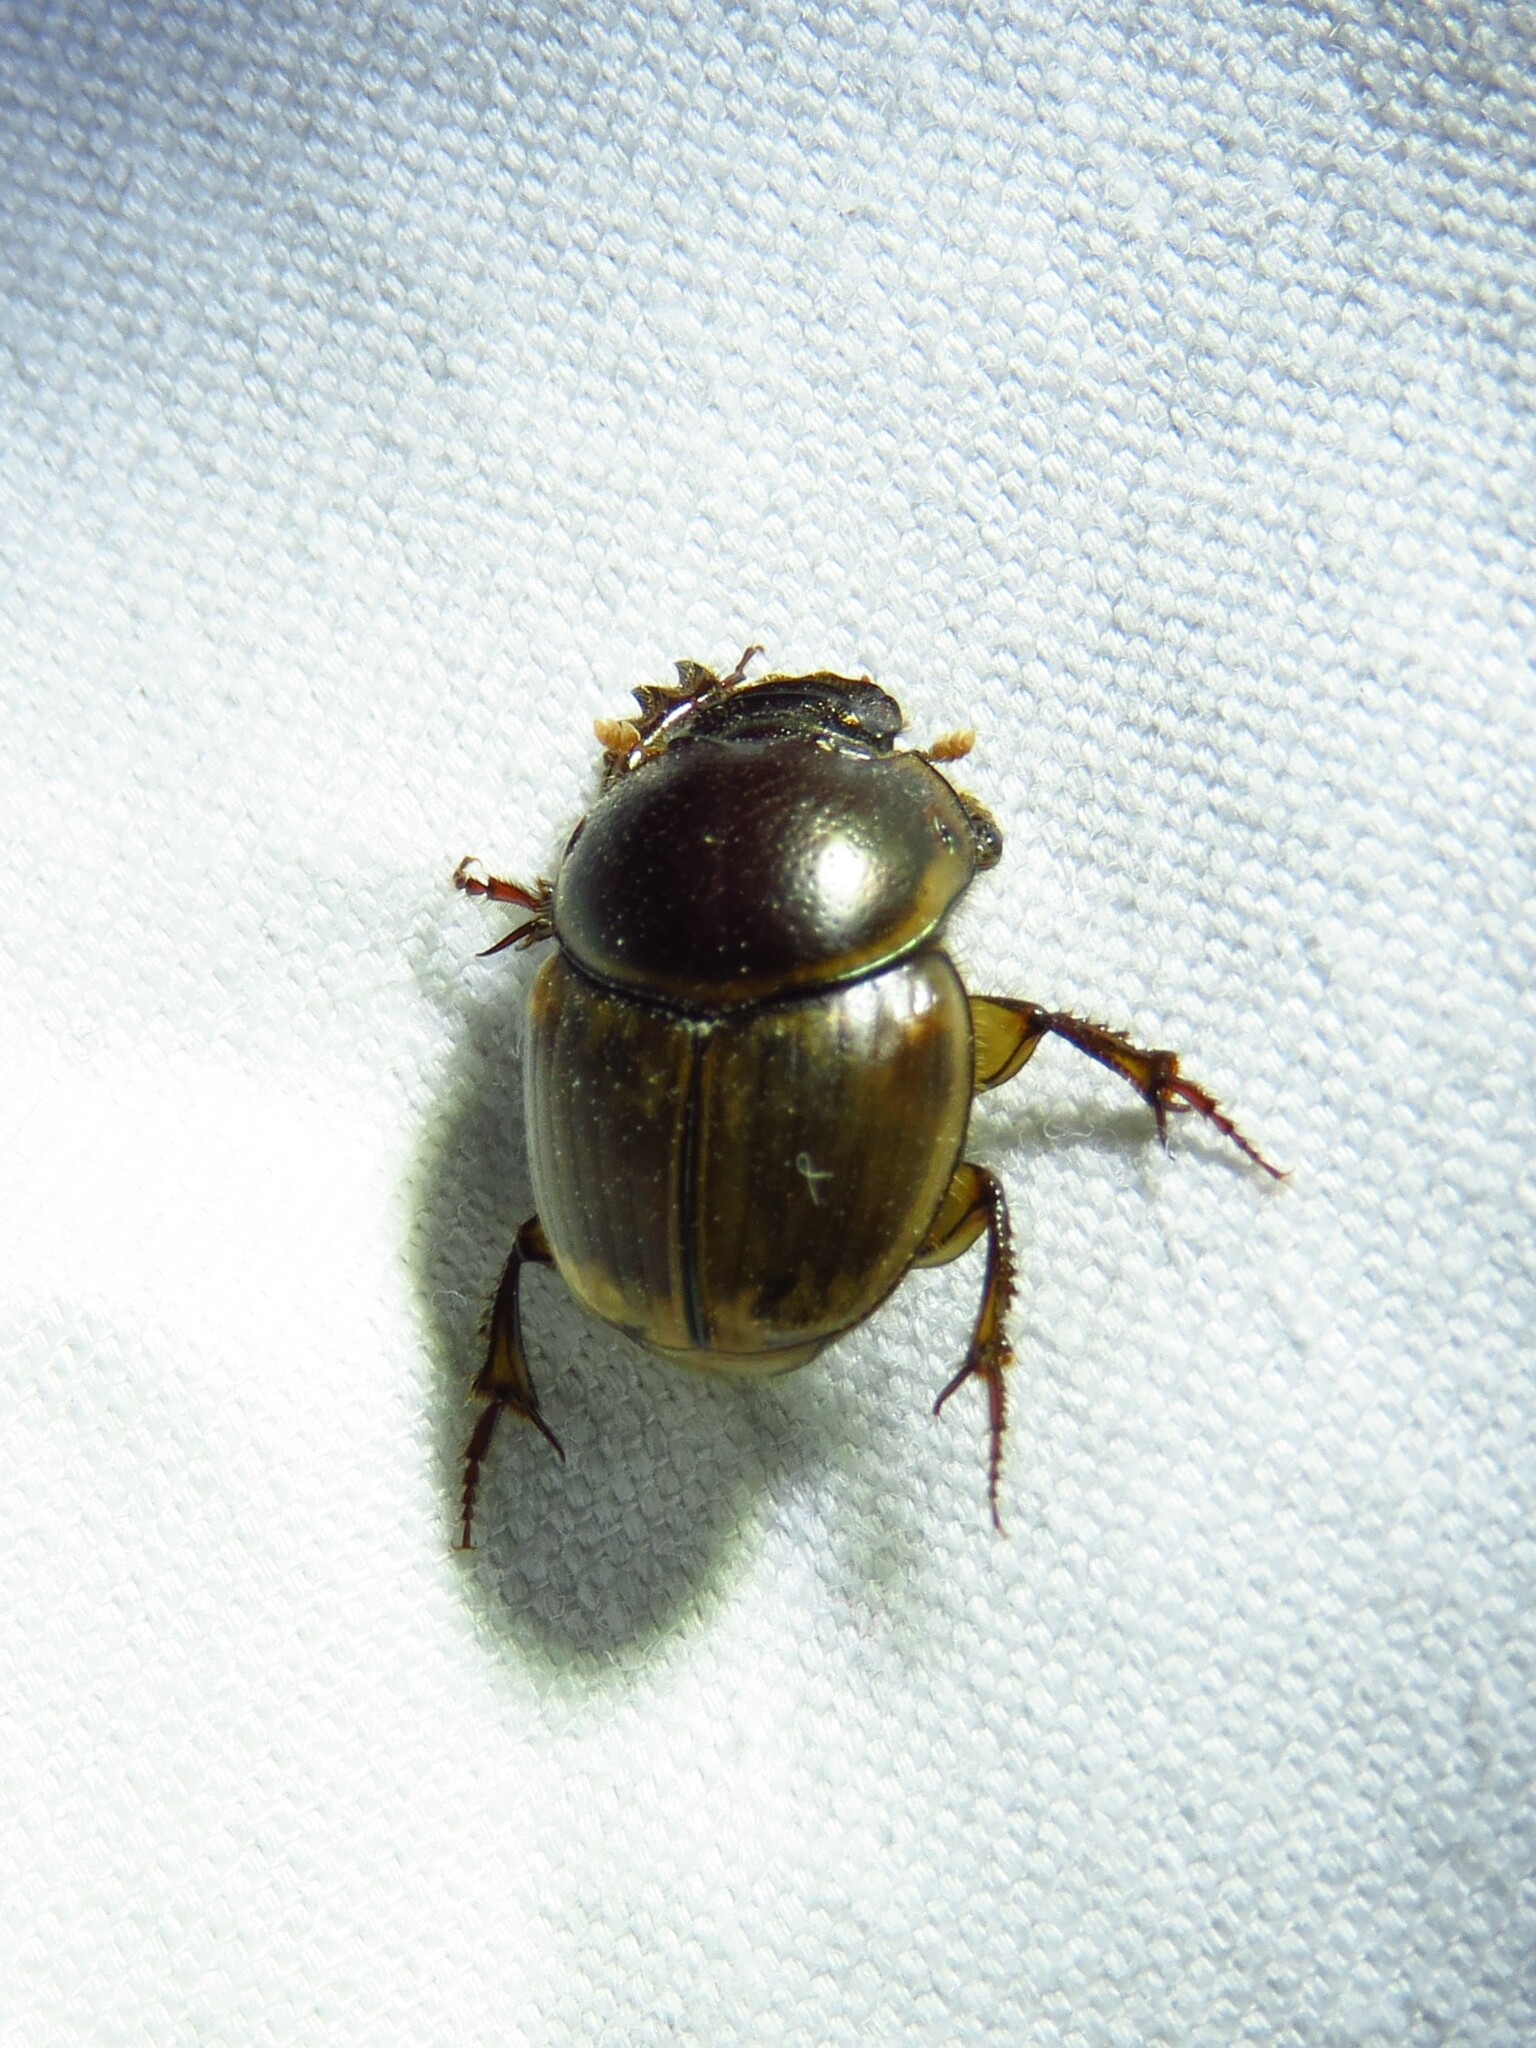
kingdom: Animalia
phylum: Arthropoda
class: Insecta
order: Coleoptera
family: Scarabaeidae
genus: Digitonthophagus
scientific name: Digitonthophagus gazella
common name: Brown dung beetle
